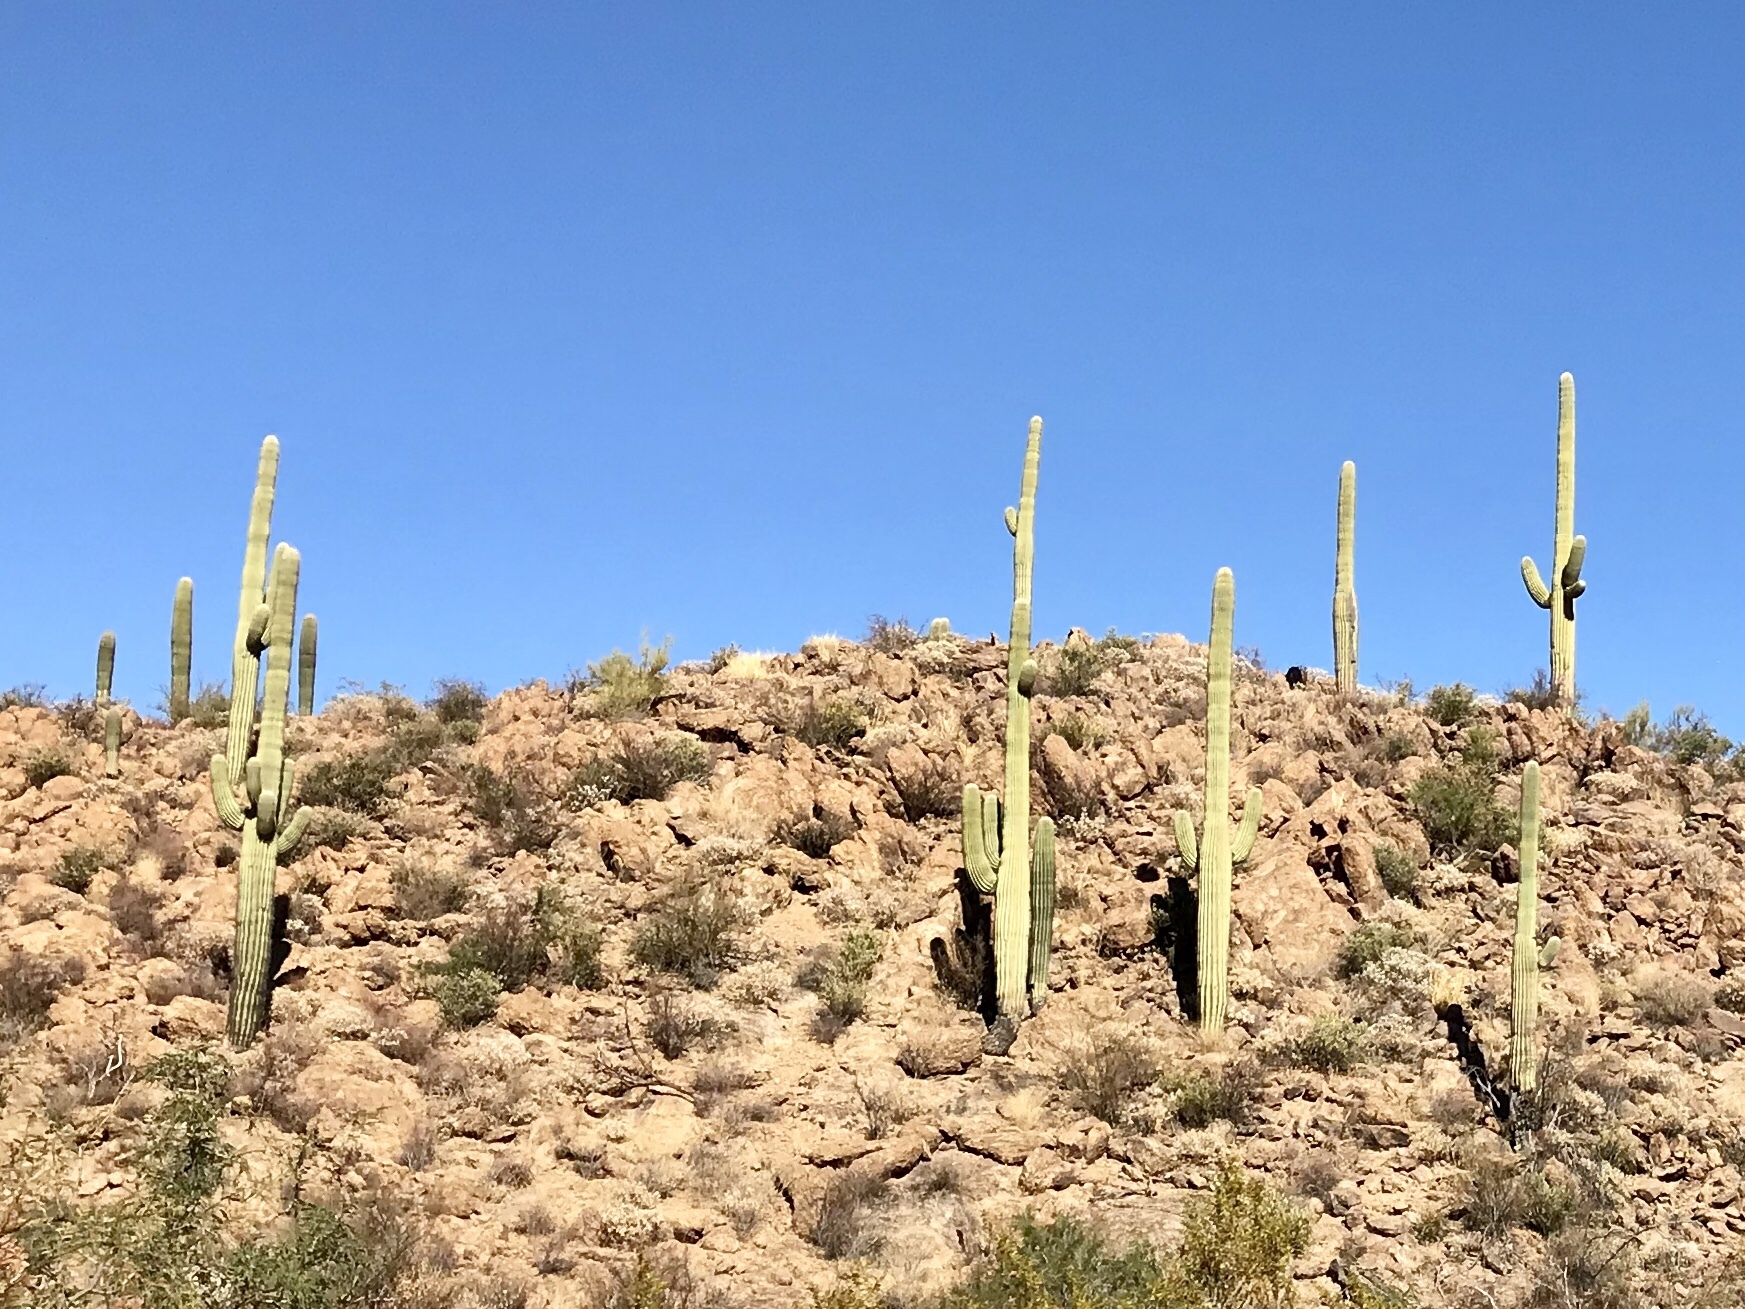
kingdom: Plantae
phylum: Tracheophyta
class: Magnoliopsida
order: Caryophyllales
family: Cactaceae
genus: Carnegiea
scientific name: Carnegiea gigantea
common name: Saguaro
